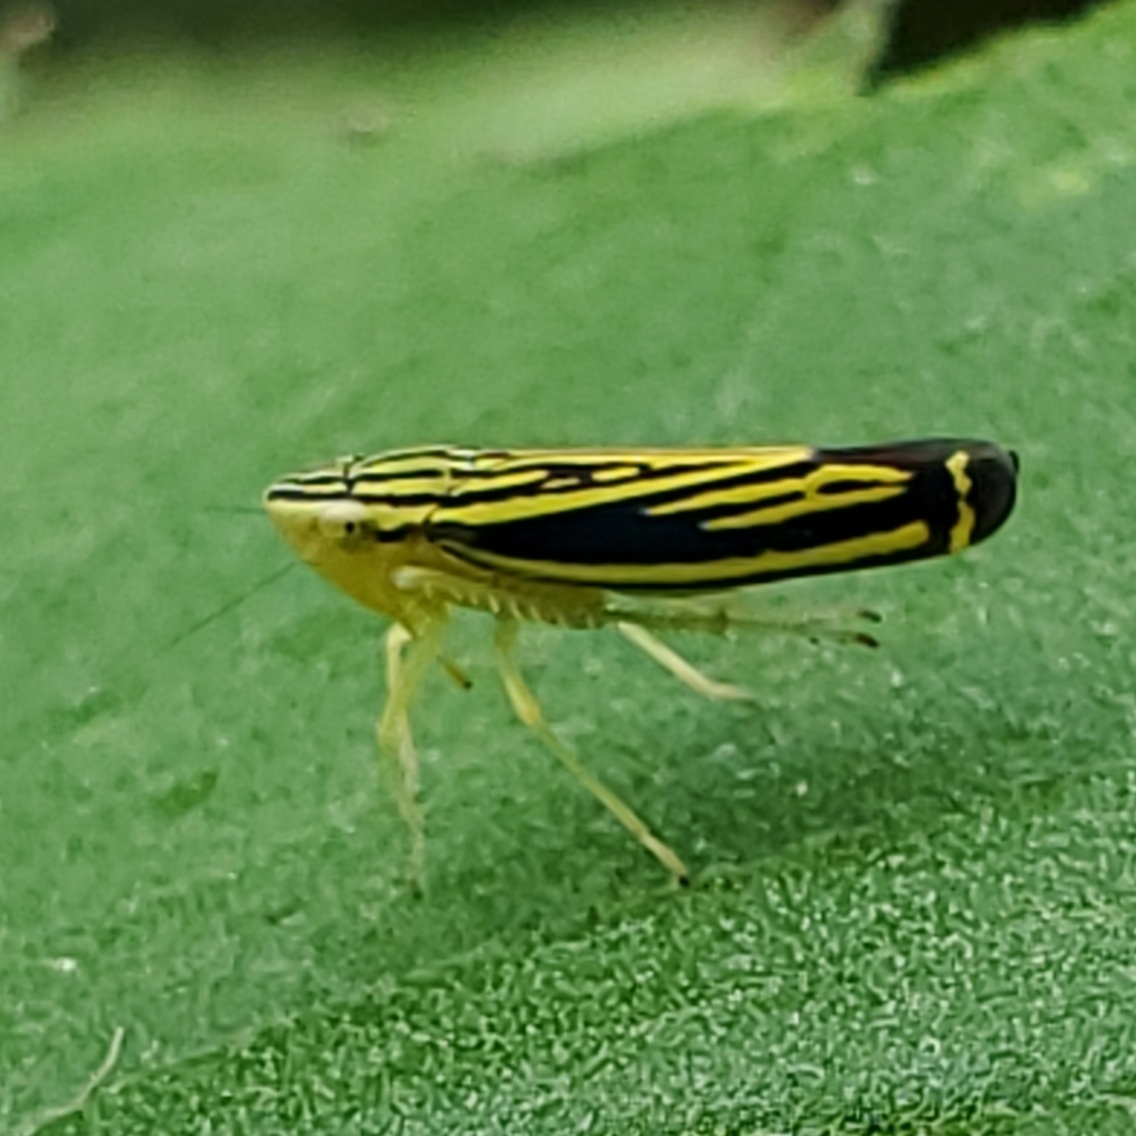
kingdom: Animalia
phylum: Arthropoda
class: Insecta
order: Hemiptera
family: Cicadellidae
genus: Sibovia
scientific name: Sibovia occatoria
